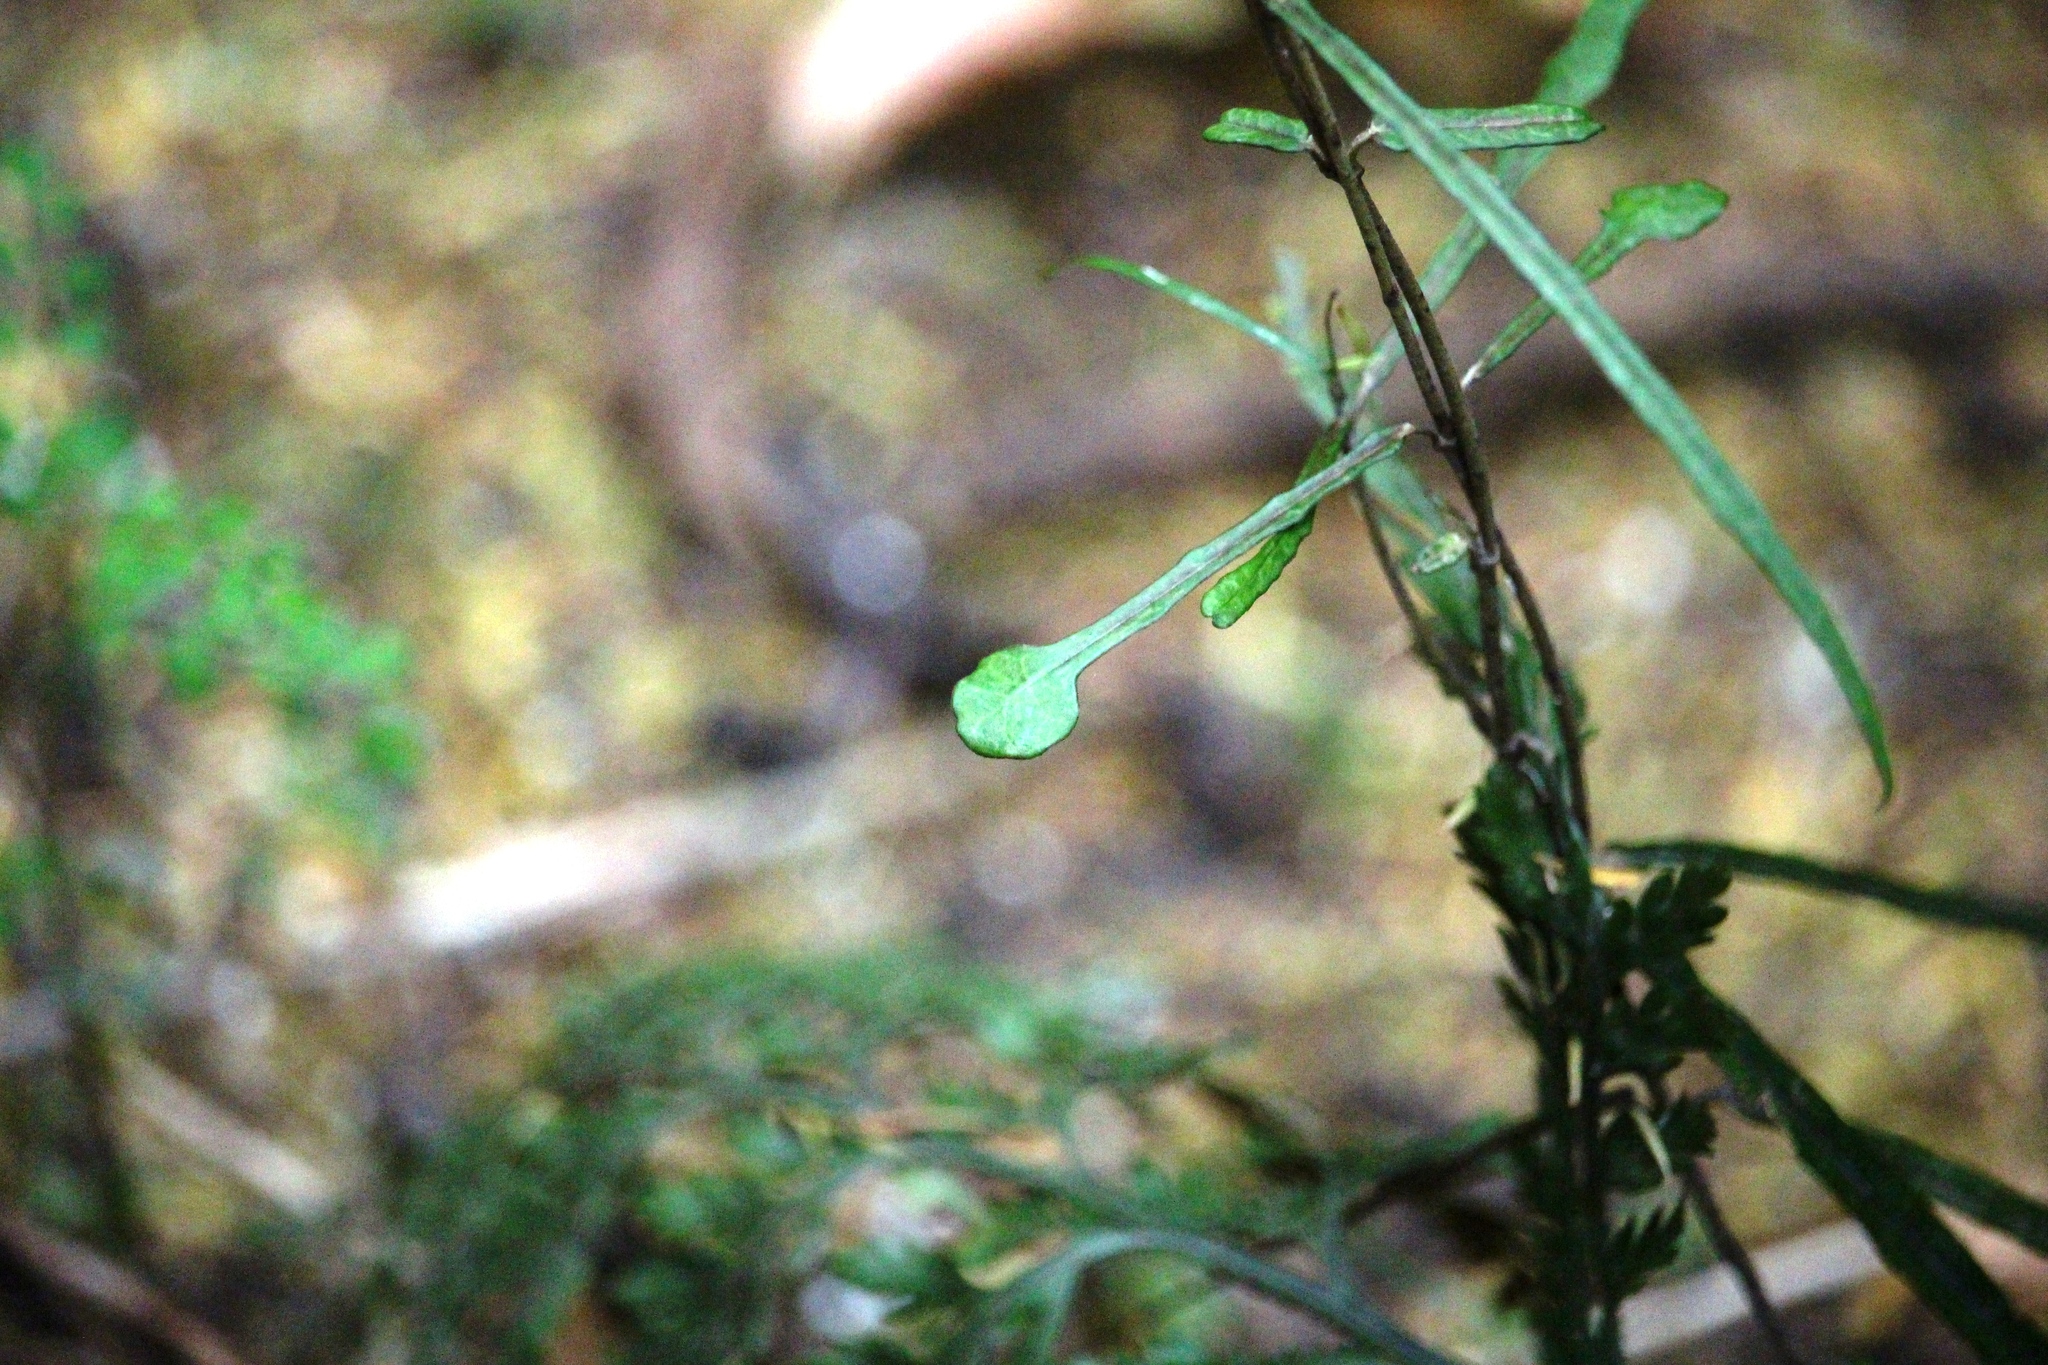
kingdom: Plantae
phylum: Tracheophyta
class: Magnoliopsida
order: Gentianales
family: Apocynaceae
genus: Parsonsia
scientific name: Parsonsia heterophylla
